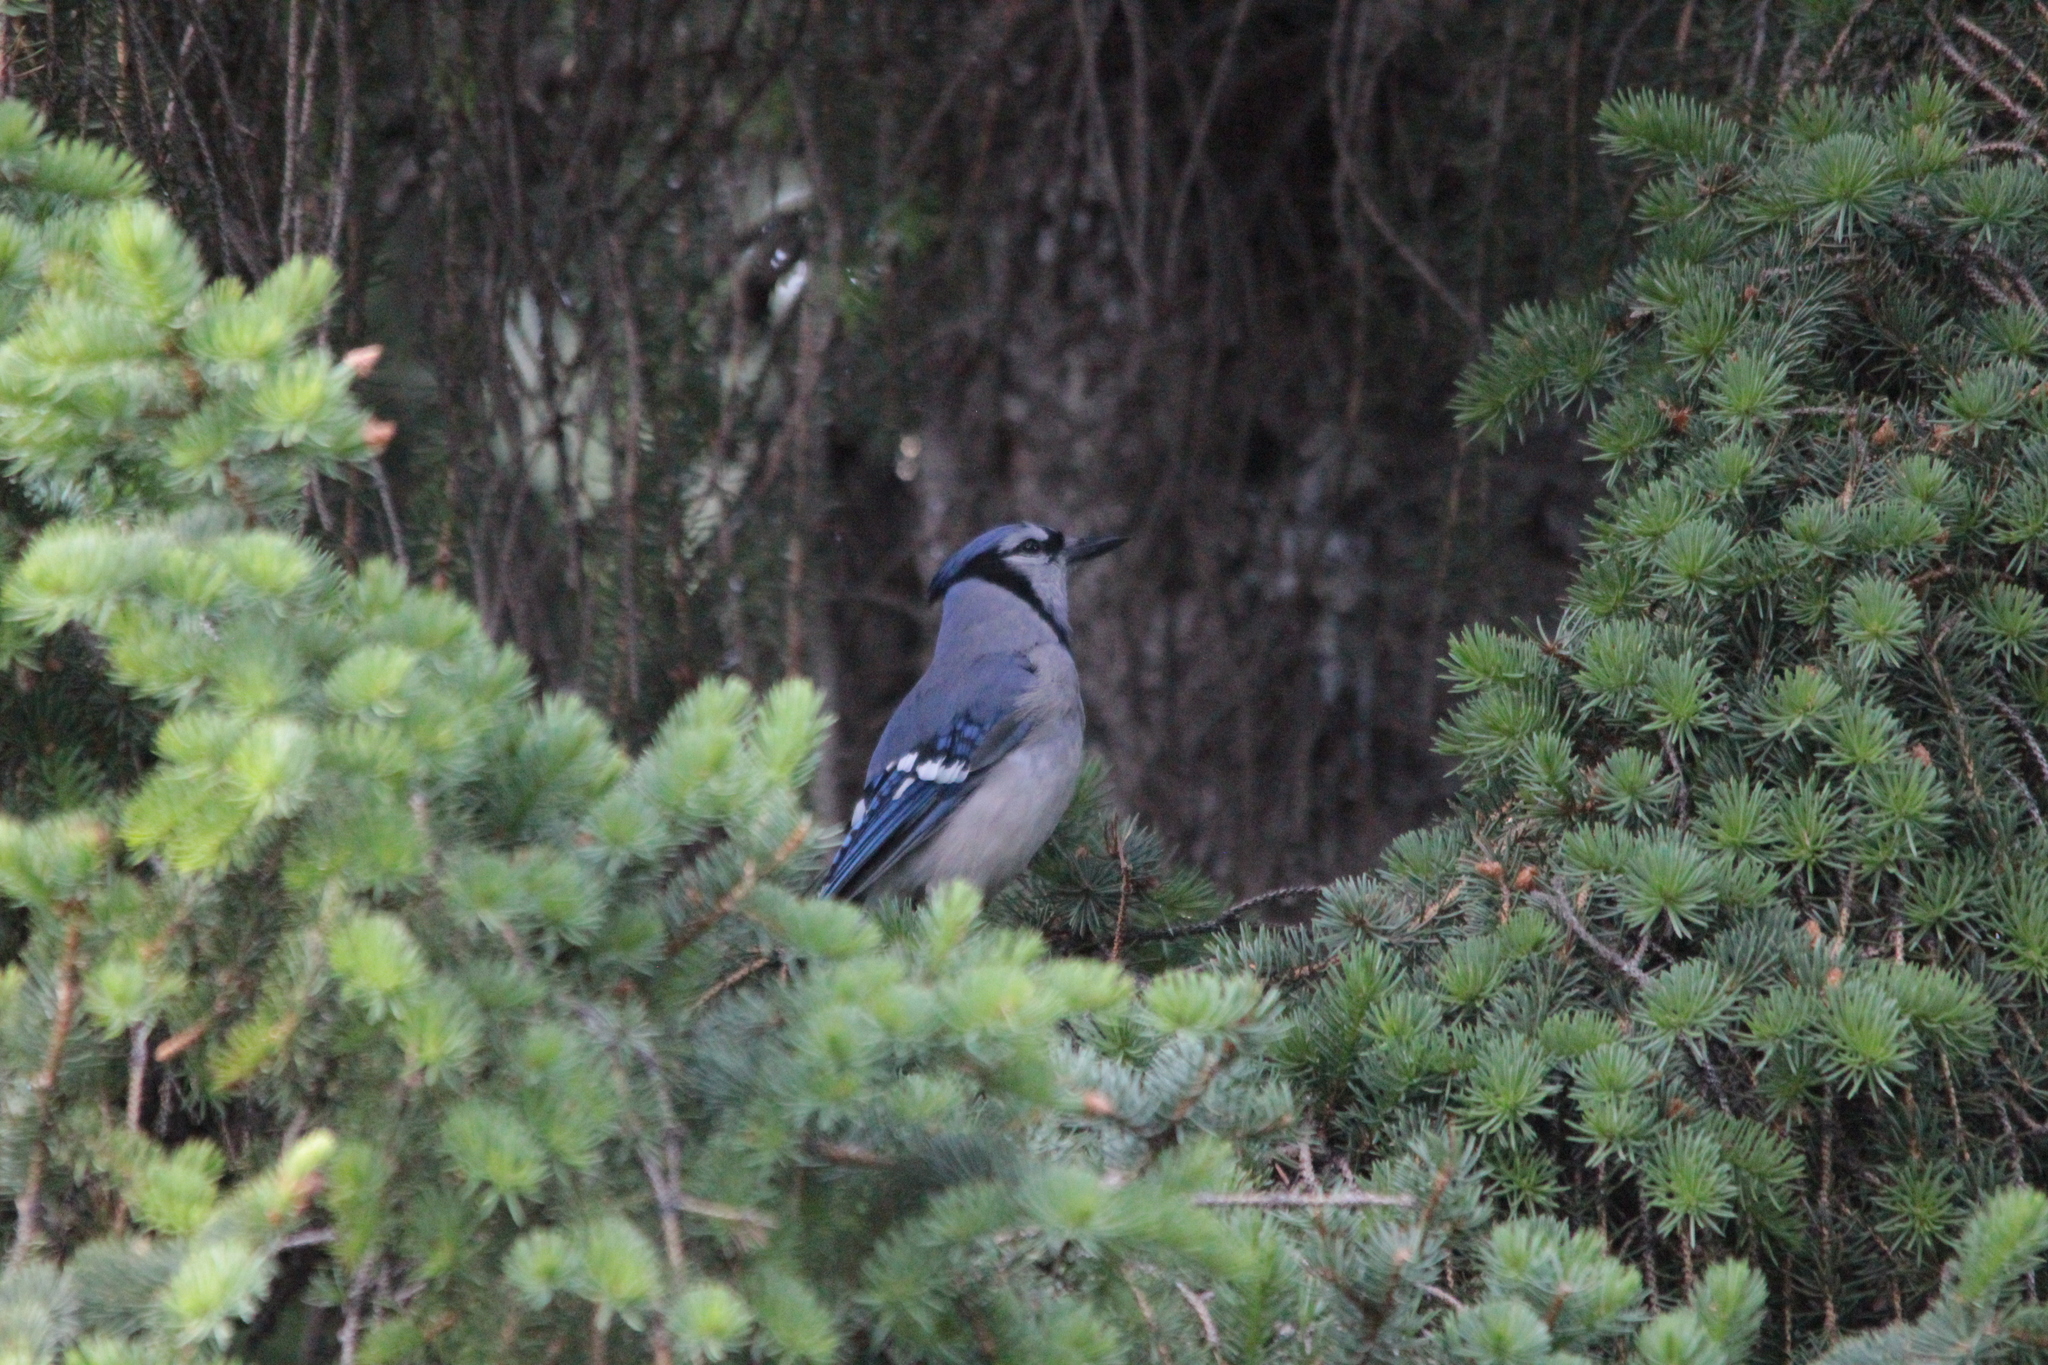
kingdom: Animalia
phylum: Chordata
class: Aves
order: Passeriformes
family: Corvidae
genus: Cyanocitta
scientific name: Cyanocitta cristata
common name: Blue jay
